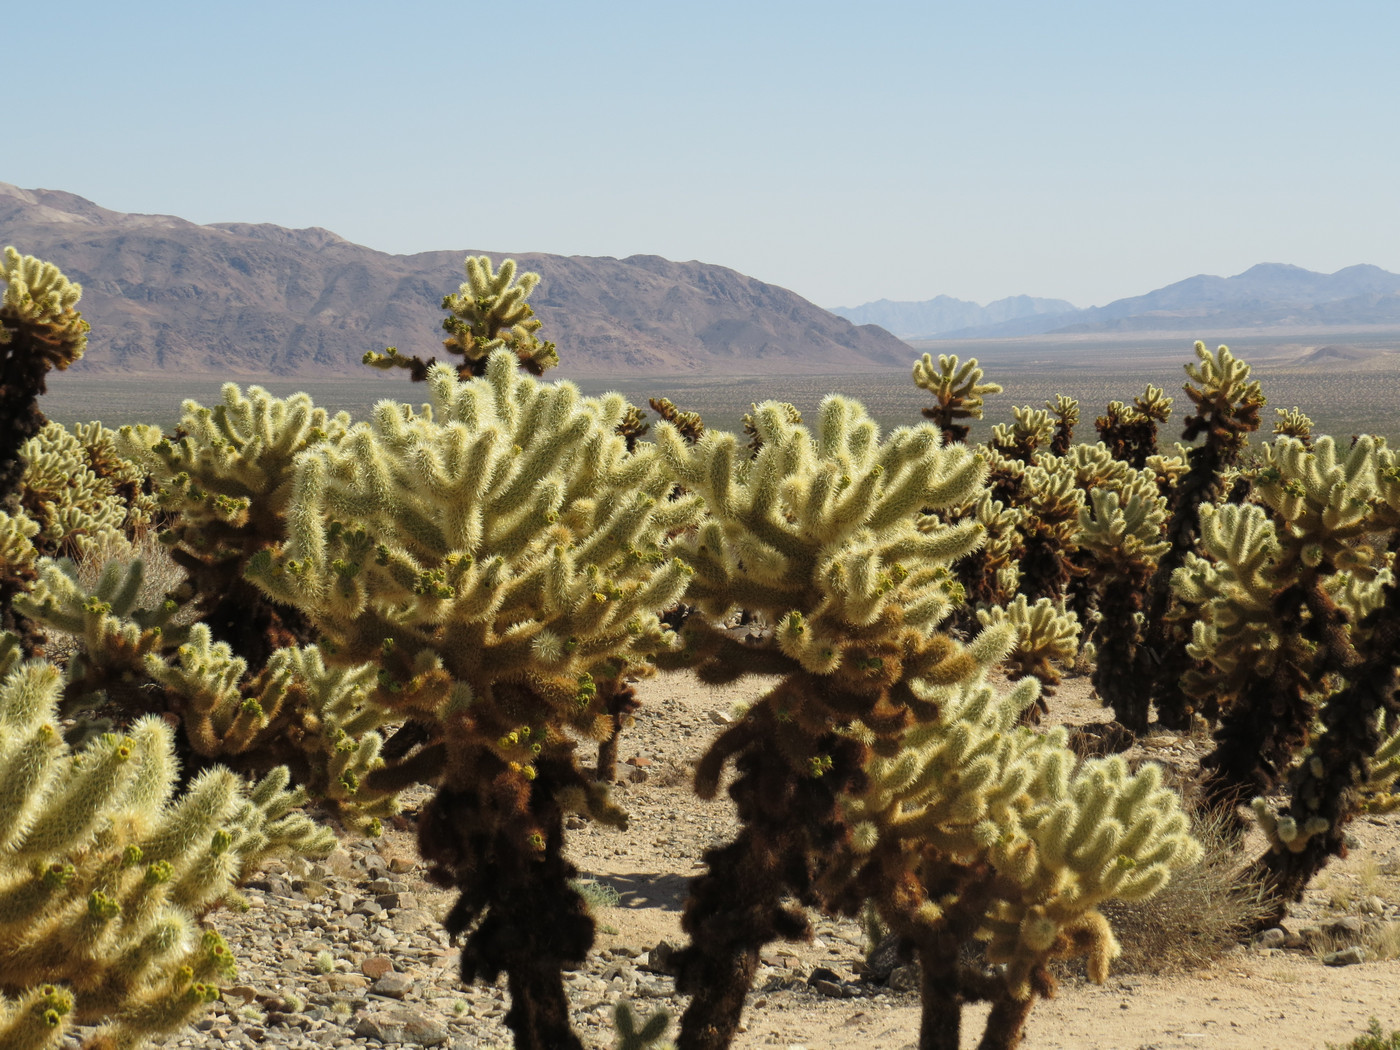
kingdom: Plantae
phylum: Tracheophyta
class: Magnoliopsida
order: Caryophyllales
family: Cactaceae
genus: Cylindropuntia
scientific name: Cylindropuntia fosbergii
